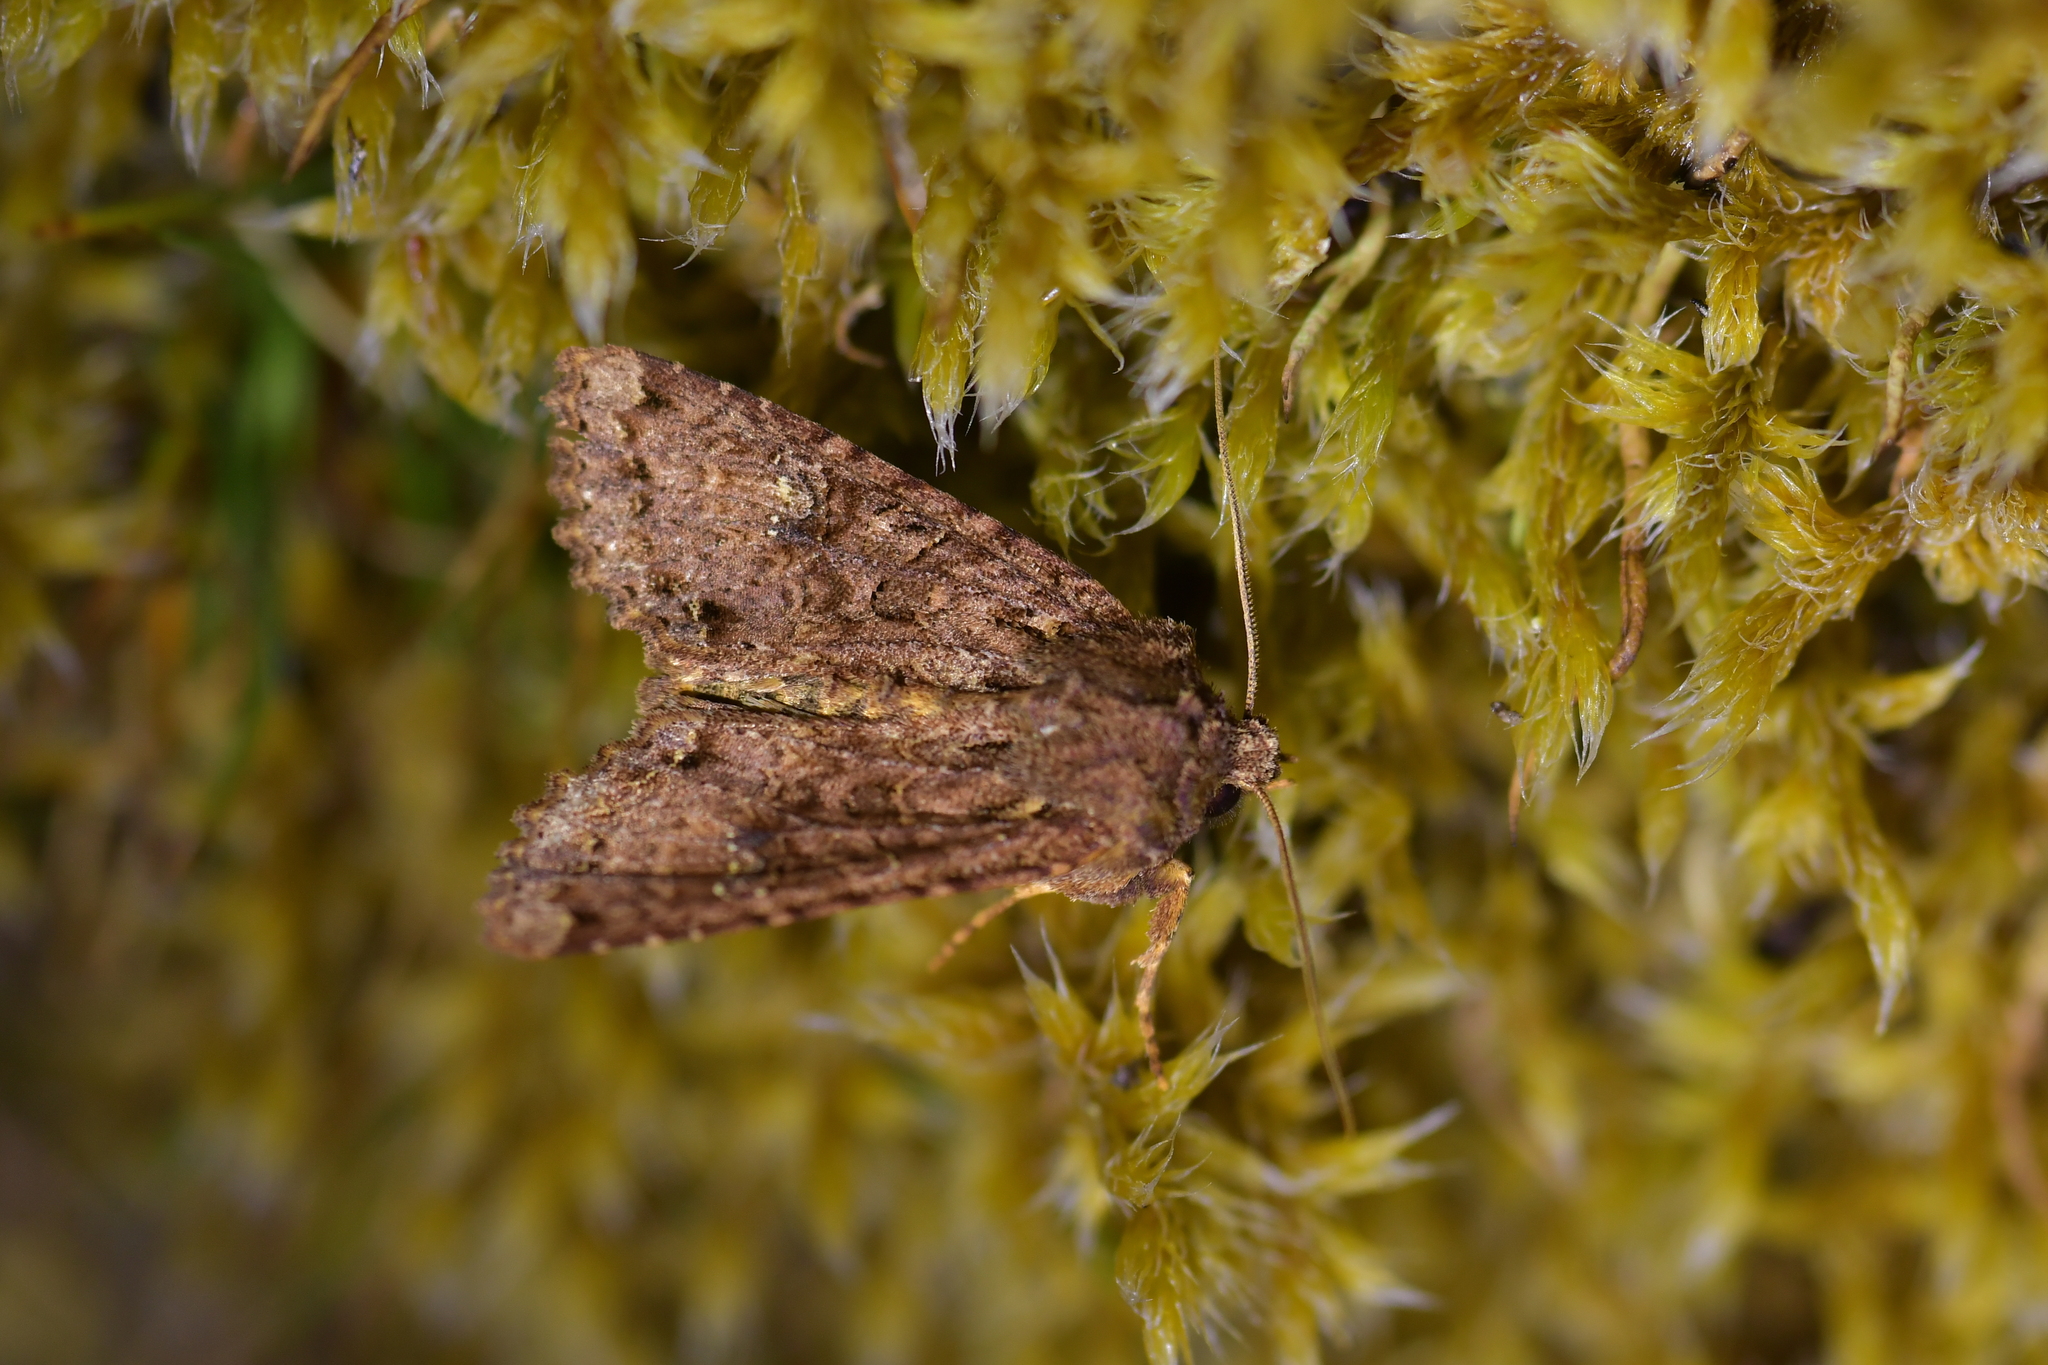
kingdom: Animalia
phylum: Arthropoda
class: Insecta
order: Lepidoptera
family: Noctuidae
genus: Meterana
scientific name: Meterana
